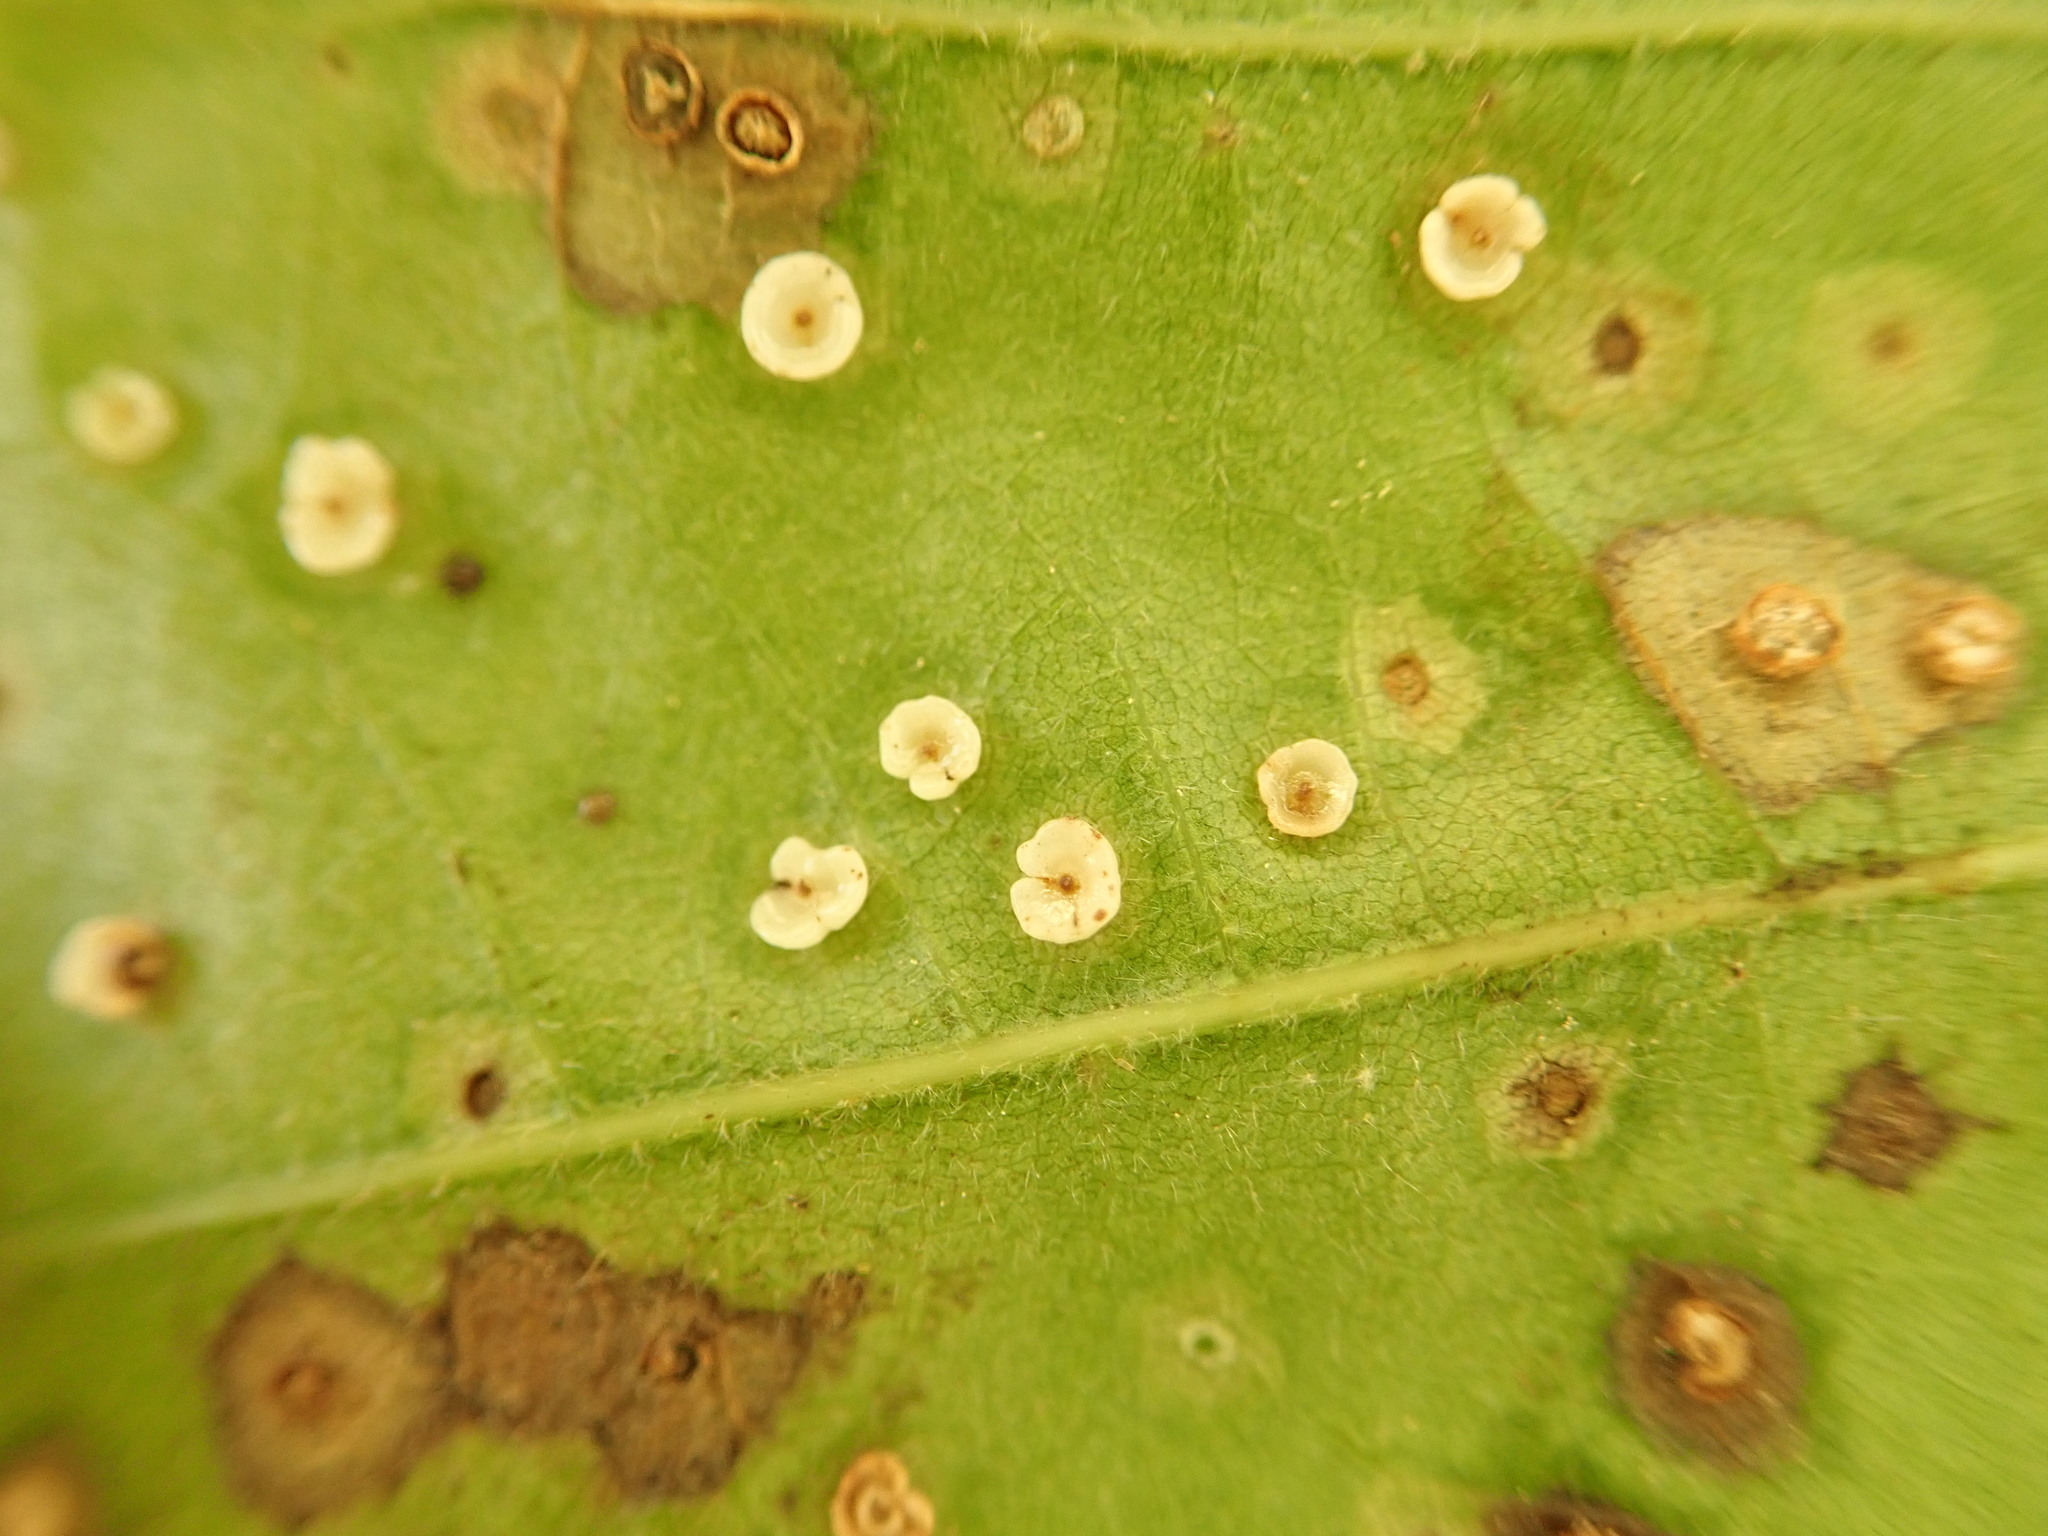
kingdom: Animalia
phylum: Arthropoda
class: Insecta
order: Hymenoptera
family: Cynipidae
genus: Neuroterus
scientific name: Neuroterus saltarius
